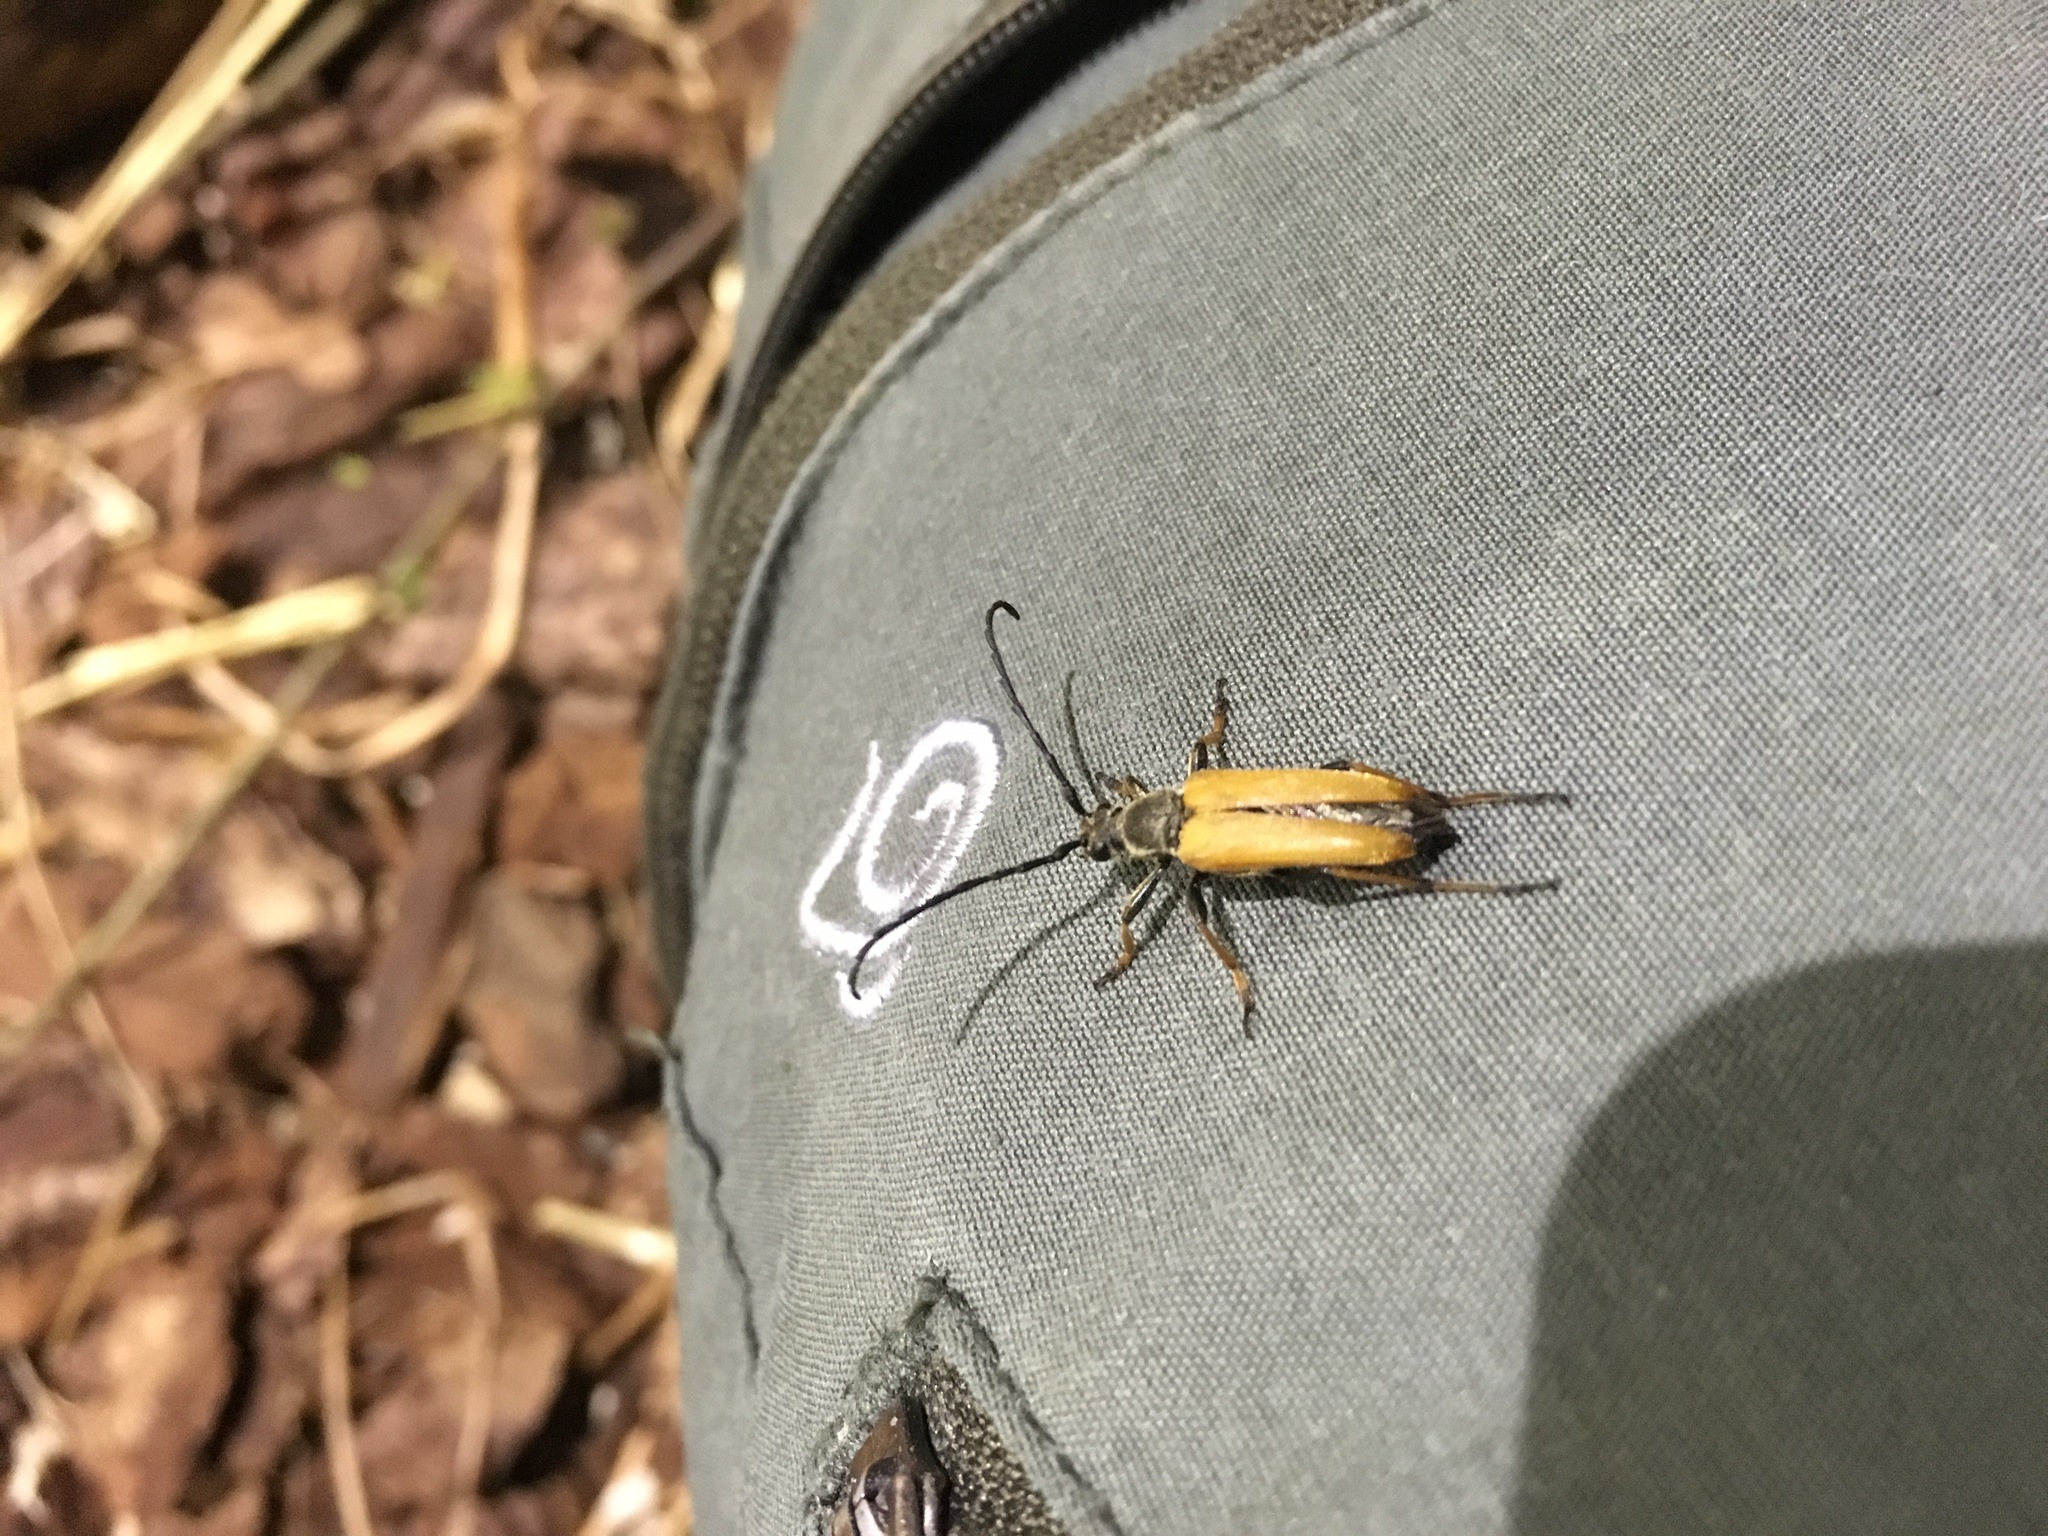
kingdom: Animalia
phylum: Arthropoda
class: Insecta
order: Coleoptera
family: Cerambycidae
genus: Stictoleptura
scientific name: Stictoleptura rubra
